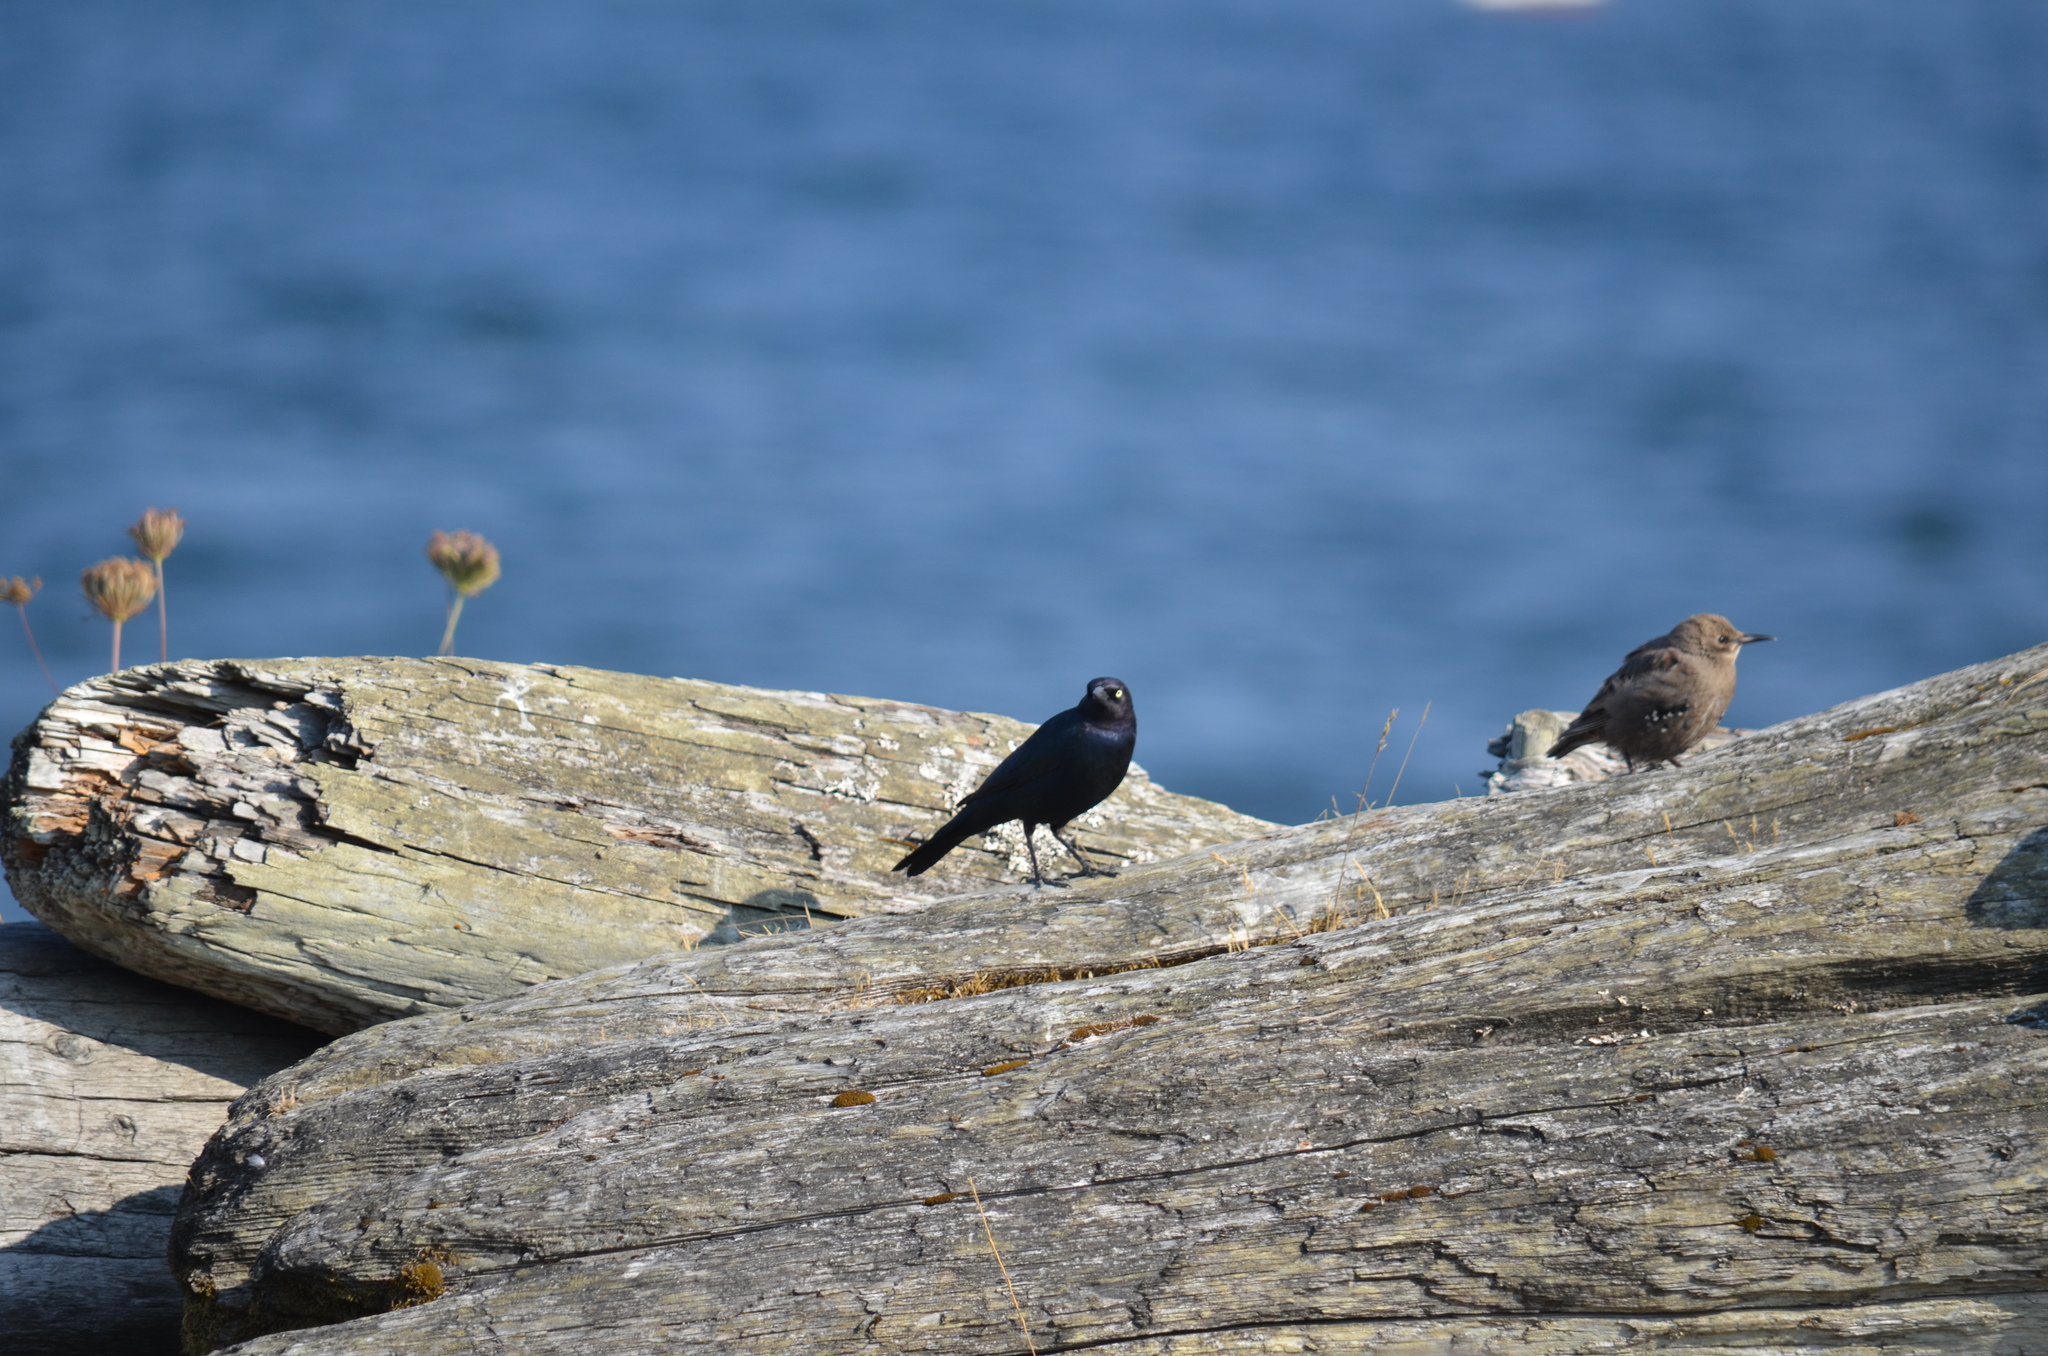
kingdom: Animalia
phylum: Chordata
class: Aves
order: Passeriformes
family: Icteridae
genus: Euphagus
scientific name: Euphagus cyanocephalus
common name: Brewer's blackbird
